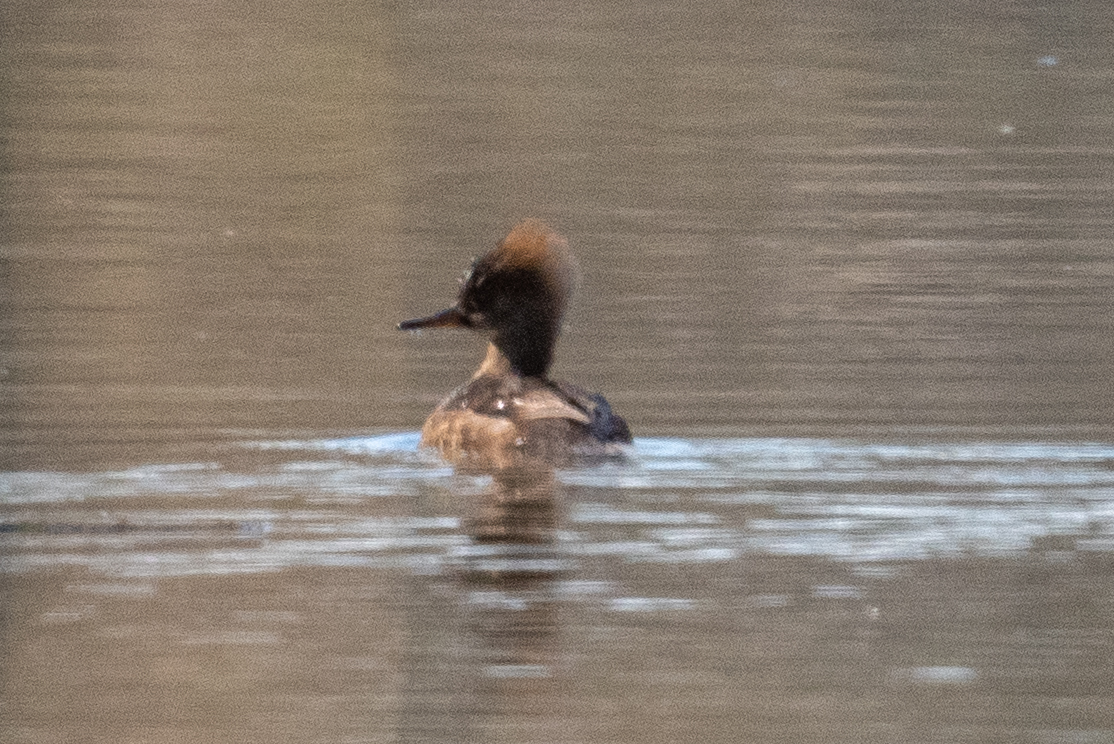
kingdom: Animalia
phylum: Chordata
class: Aves
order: Anseriformes
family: Anatidae
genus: Lophodytes
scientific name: Lophodytes cucullatus
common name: Hooded merganser
